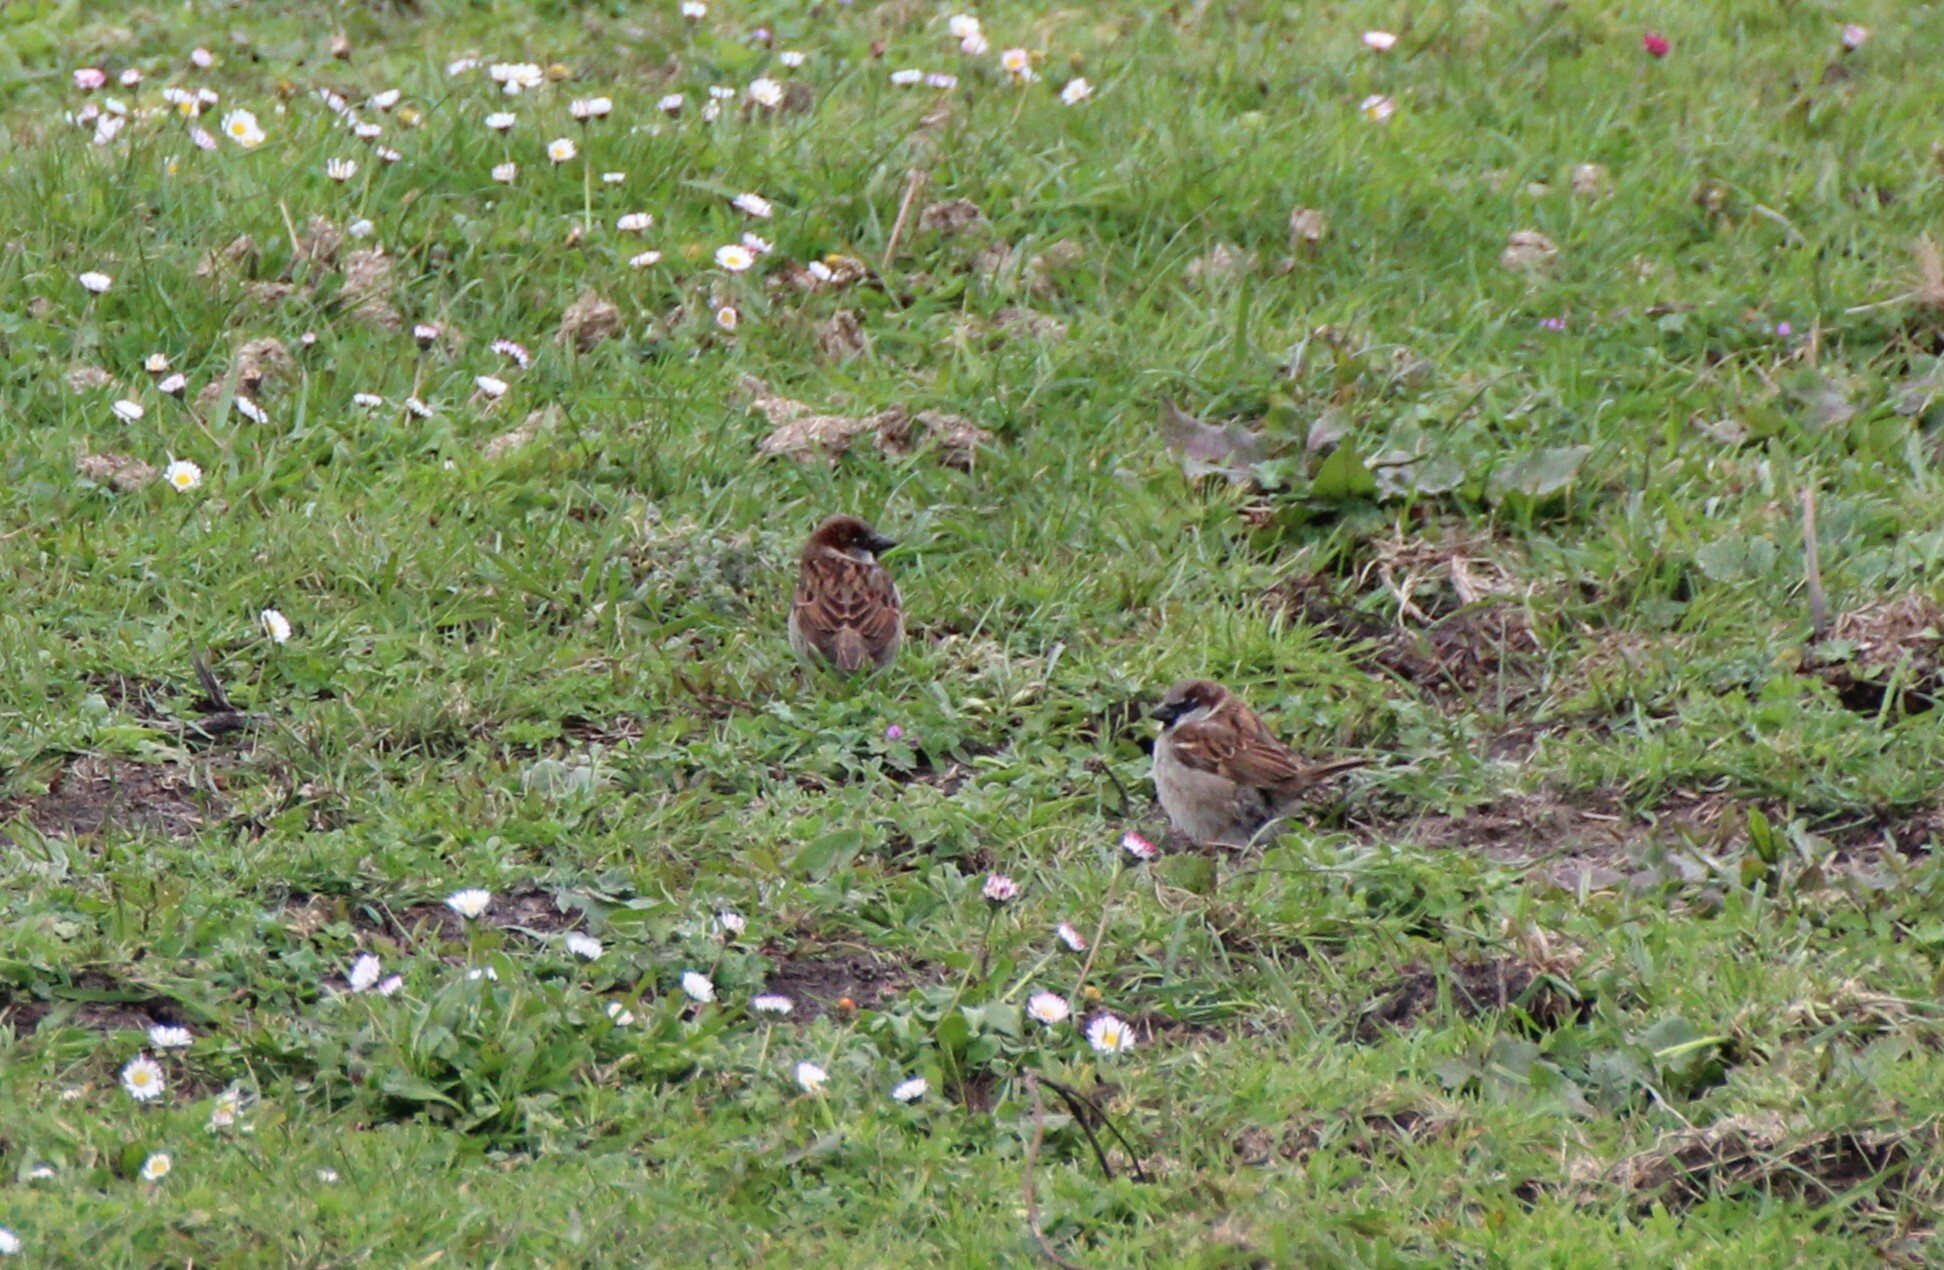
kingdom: Animalia
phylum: Chordata
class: Aves
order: Passeriformes
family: Passeridae
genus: Passer
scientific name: Passer domesticus
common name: House sparrow
